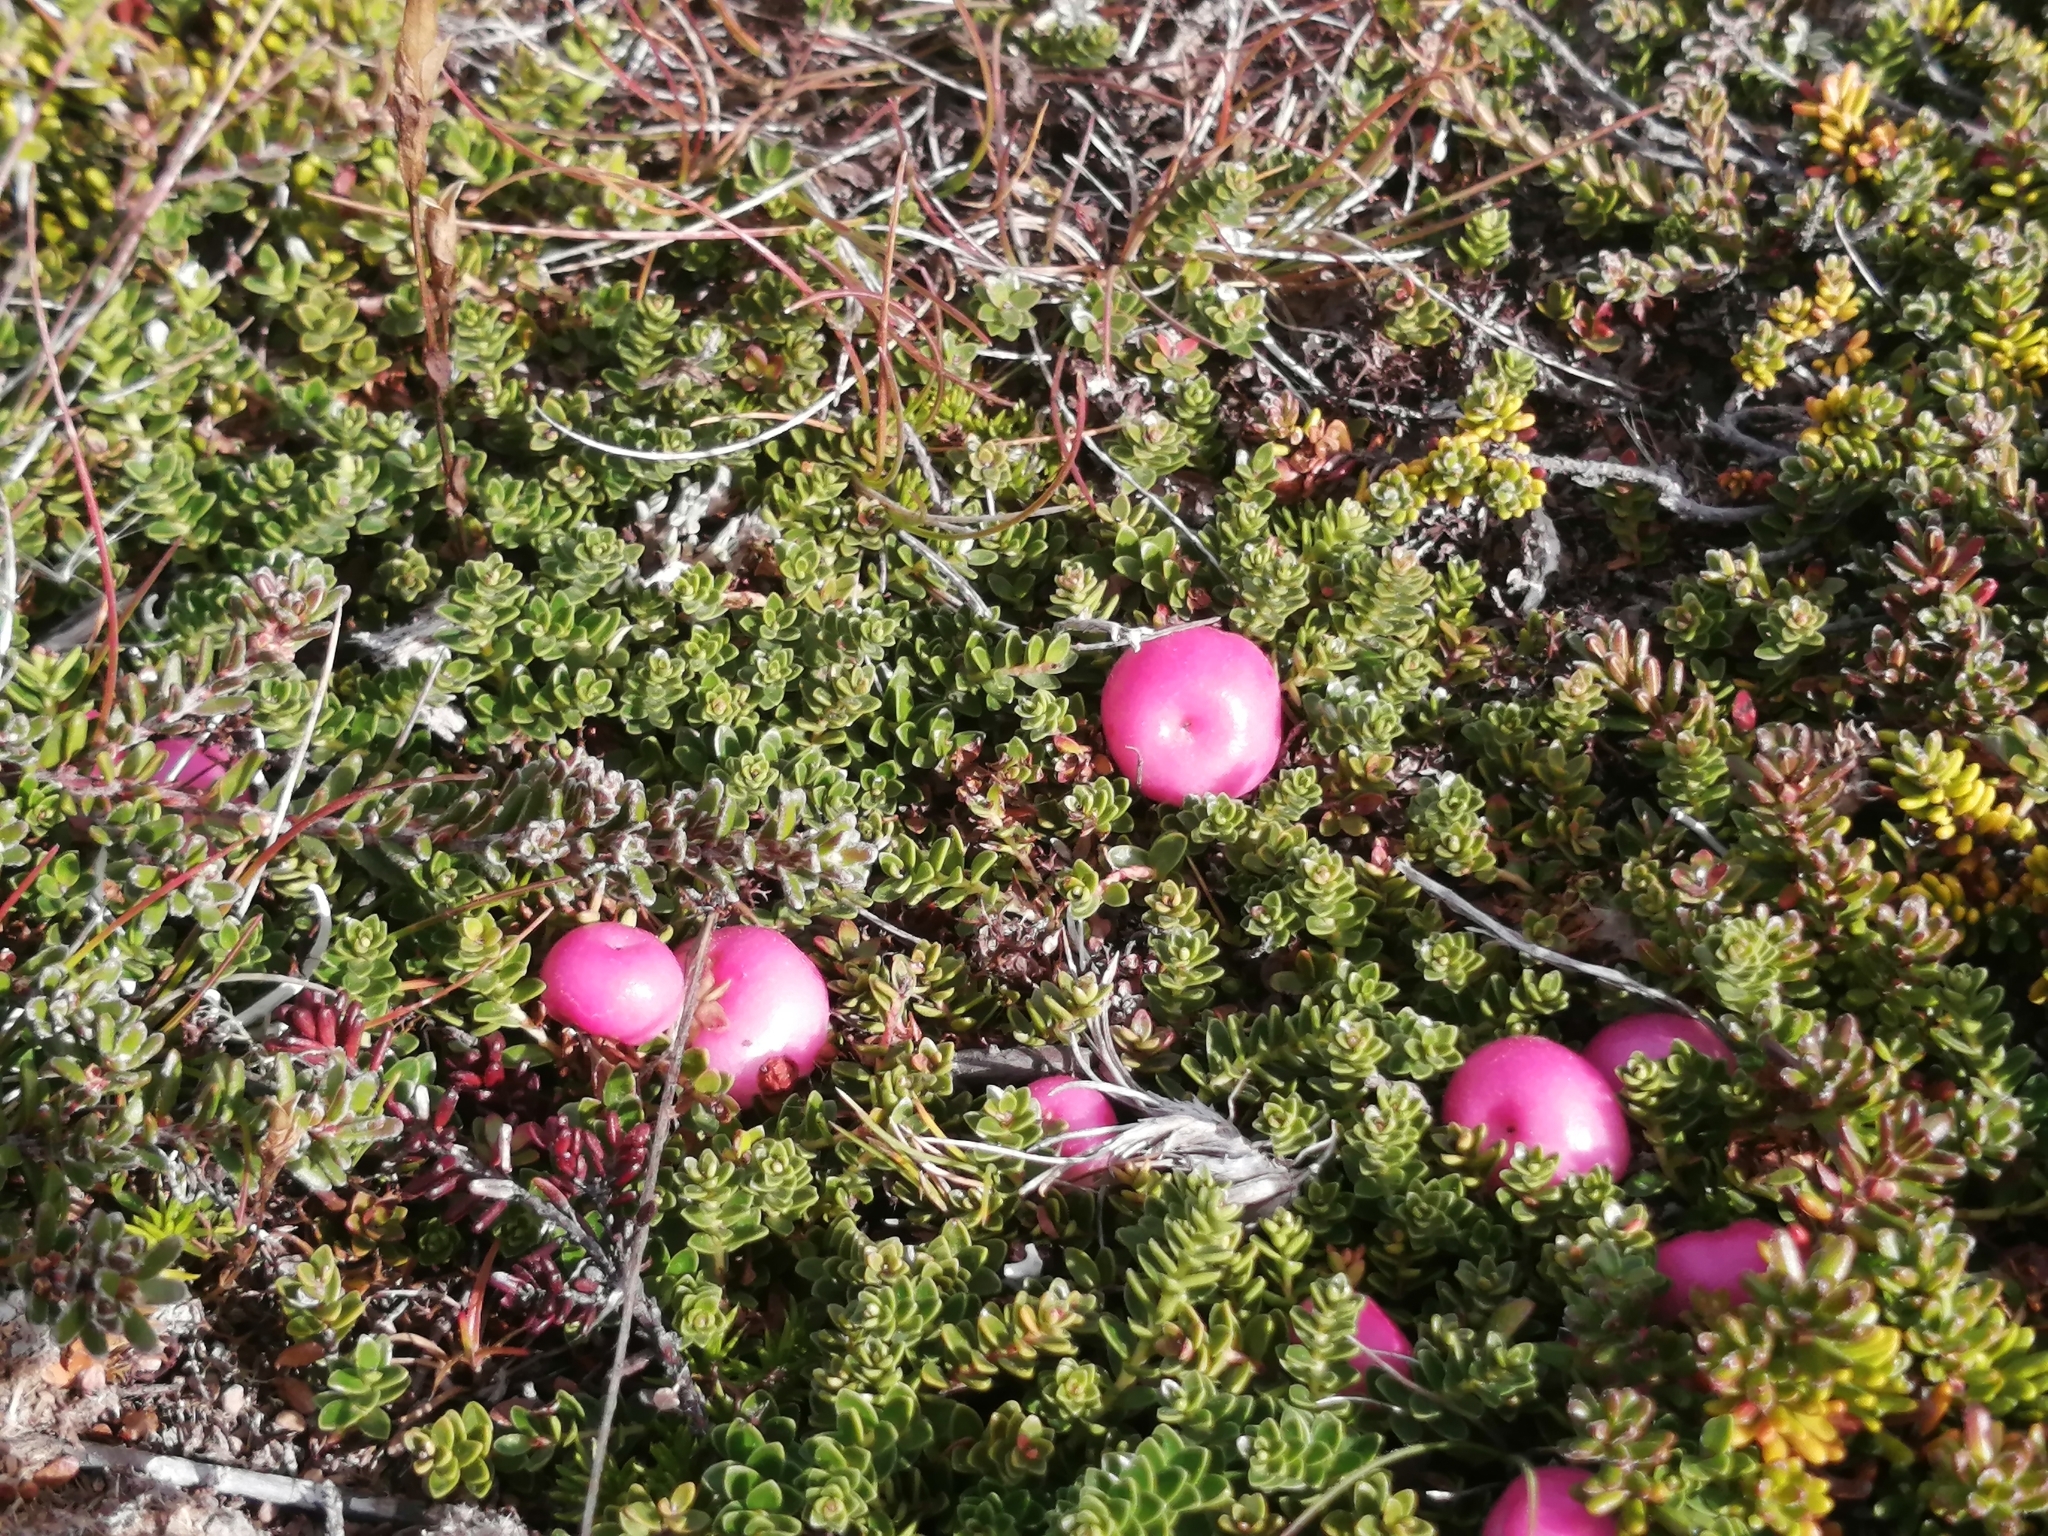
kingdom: Plantae
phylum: Tracheophyta
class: Magnoliopsida
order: Ericales
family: Ericaceae
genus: Gaultheria
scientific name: Gaultheria pumila
